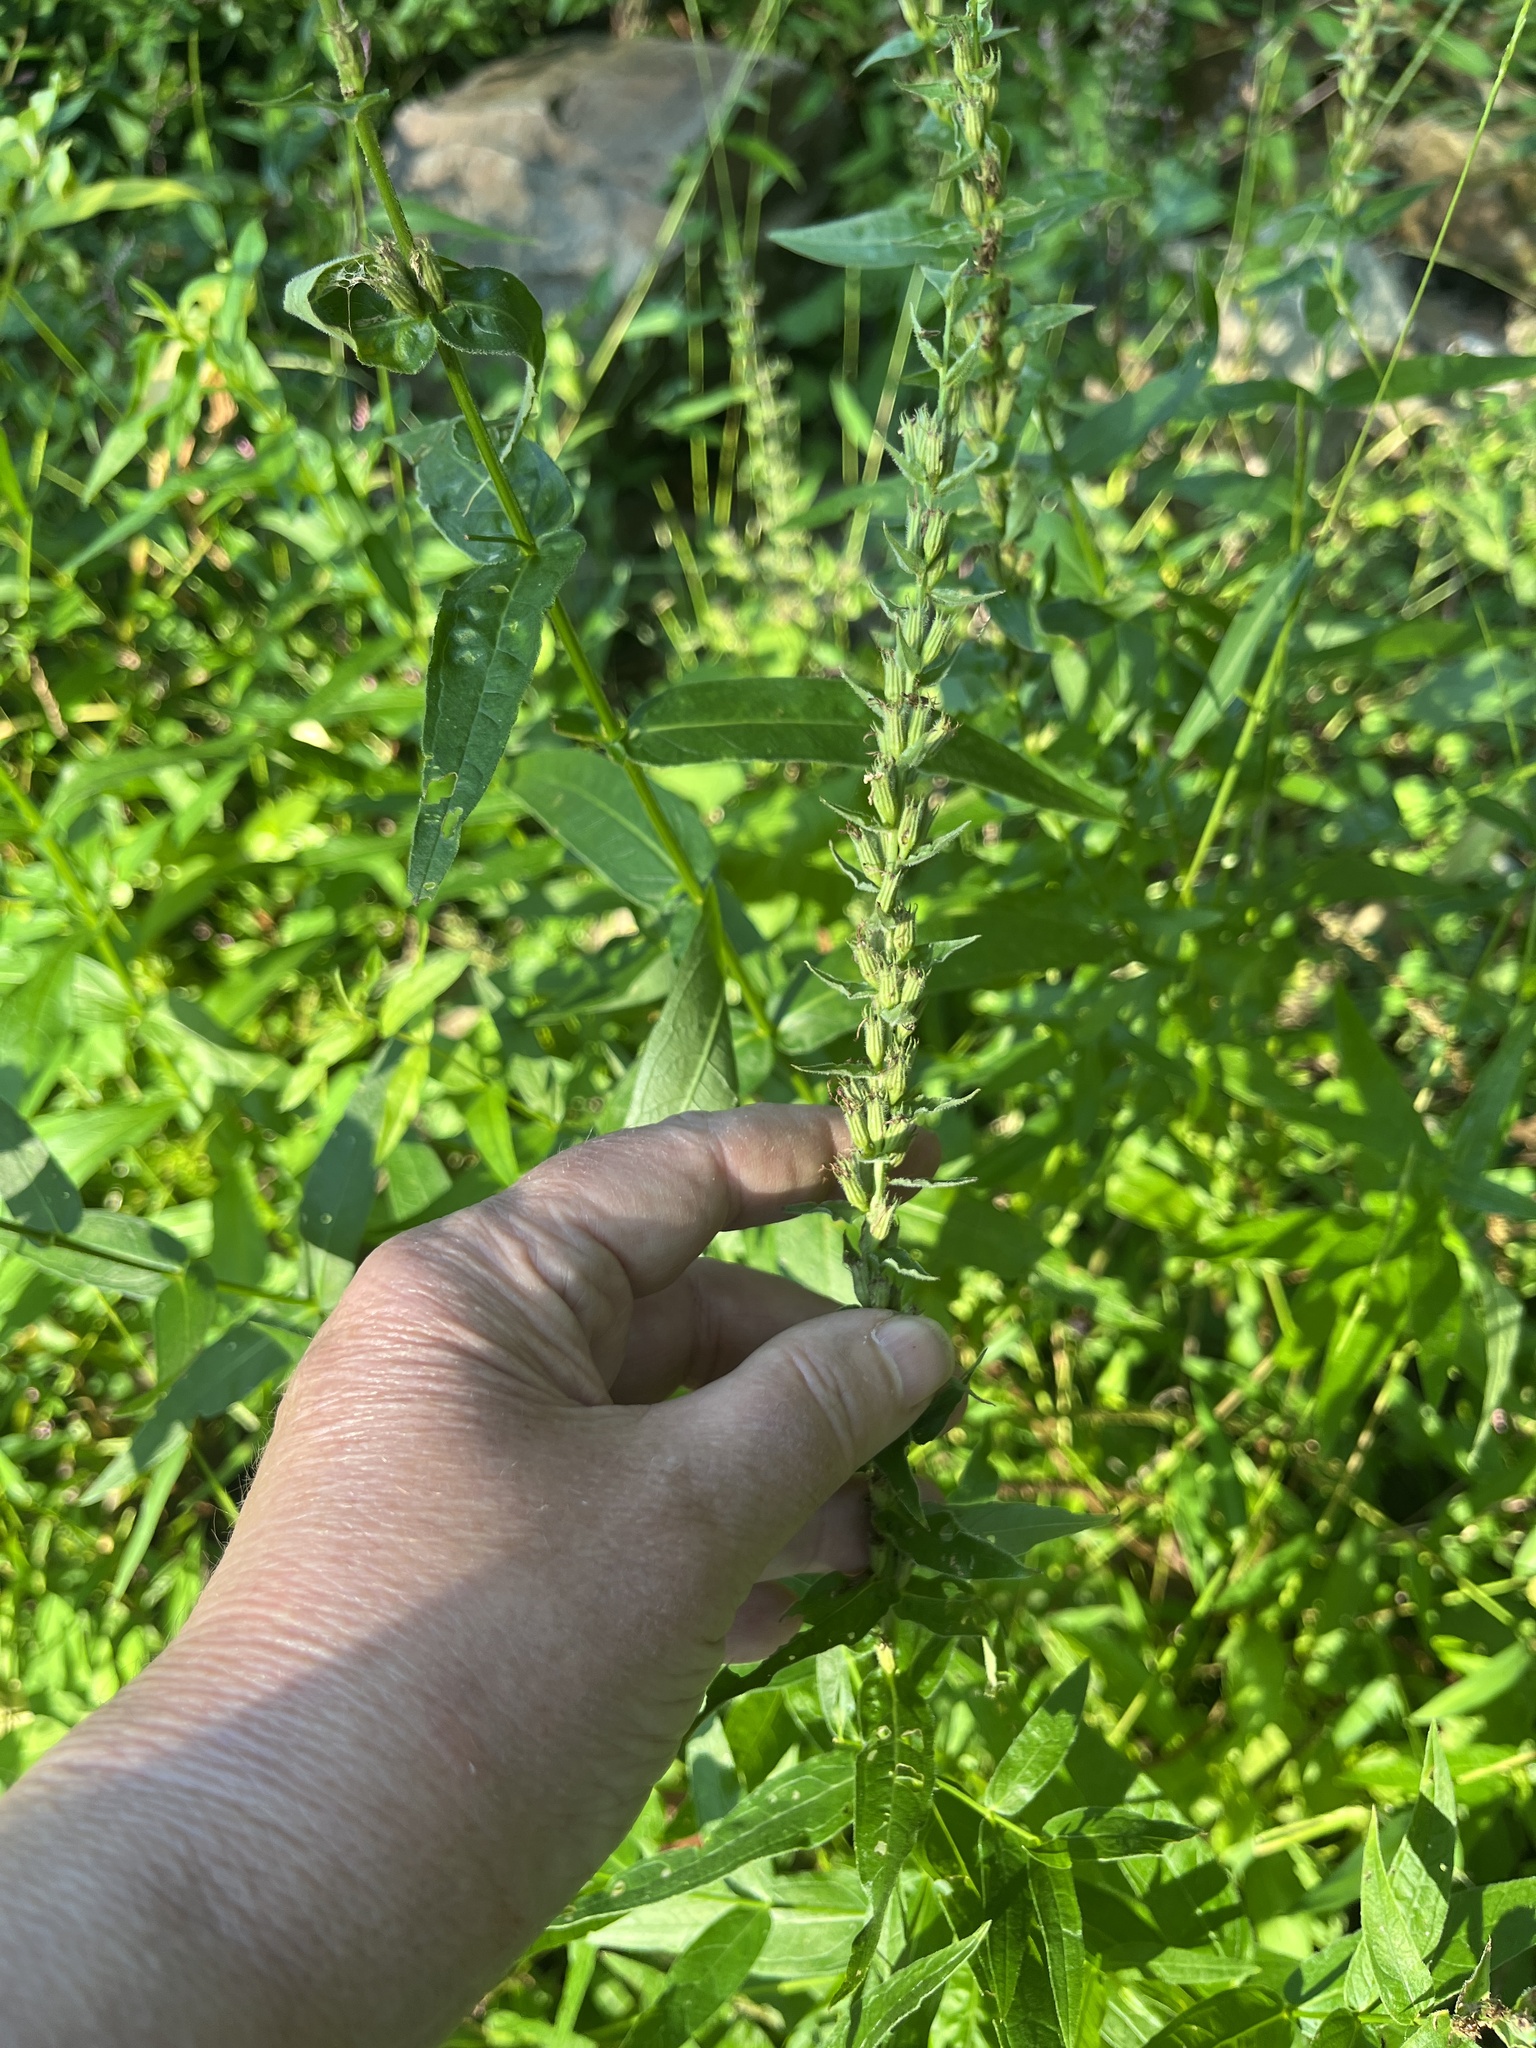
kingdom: Plantae
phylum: Tracheophyta
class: Magnoliopsida
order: Myrtales
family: Lythraceae
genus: Lythrum
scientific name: Lythrum salicaria
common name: Purple loosestrife
